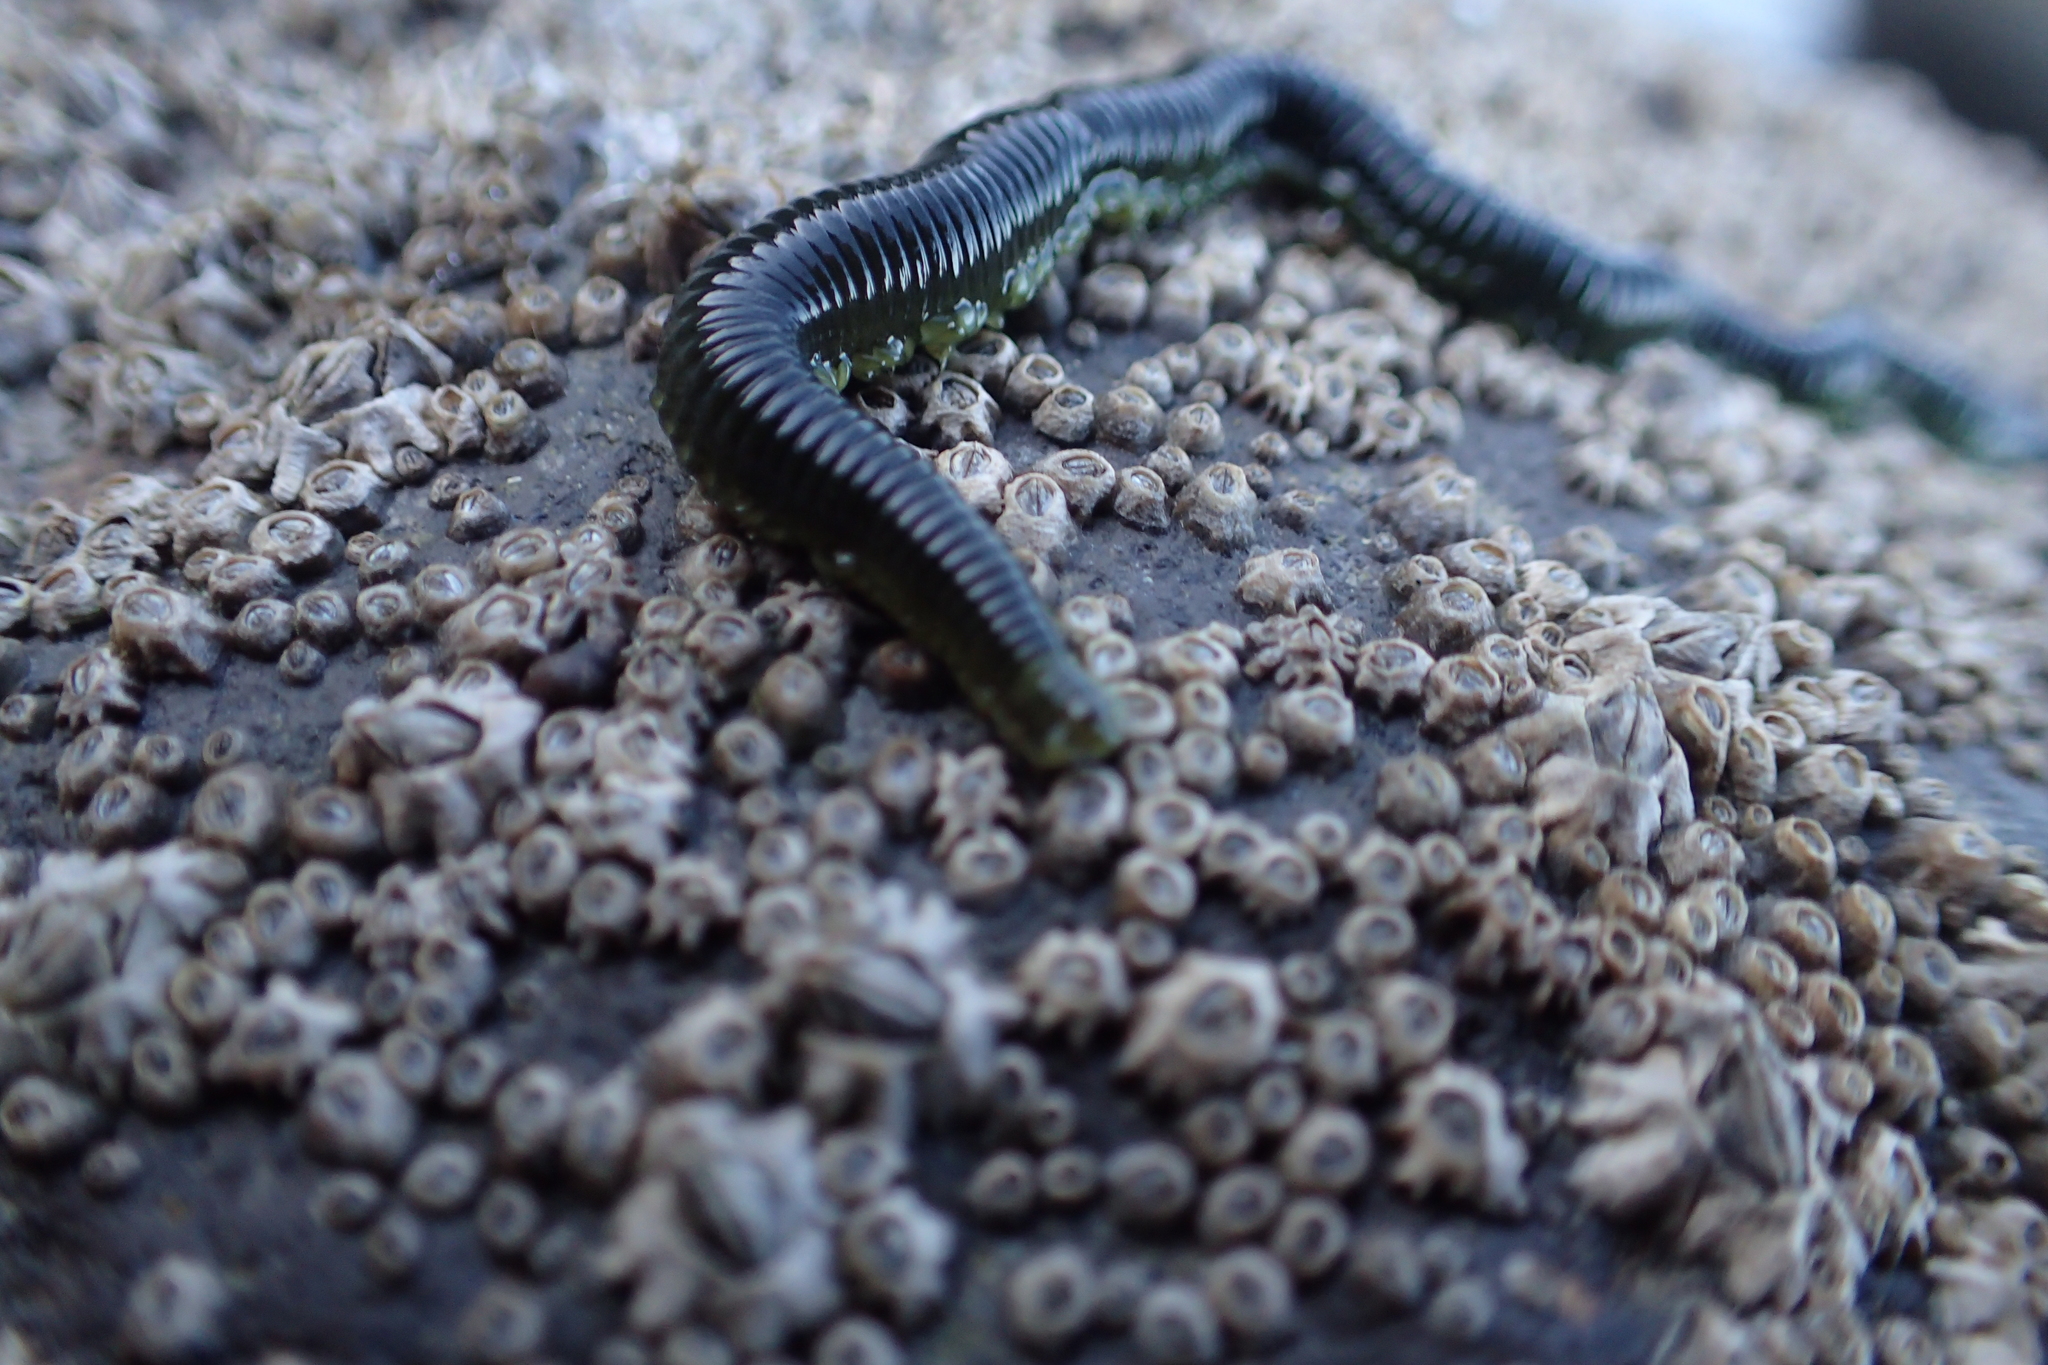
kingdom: Animalia
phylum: Annelida
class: Polychaeta
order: Phyllodocida
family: Phyllodocidae
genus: Eulalia
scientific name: Eulalia microphylla
